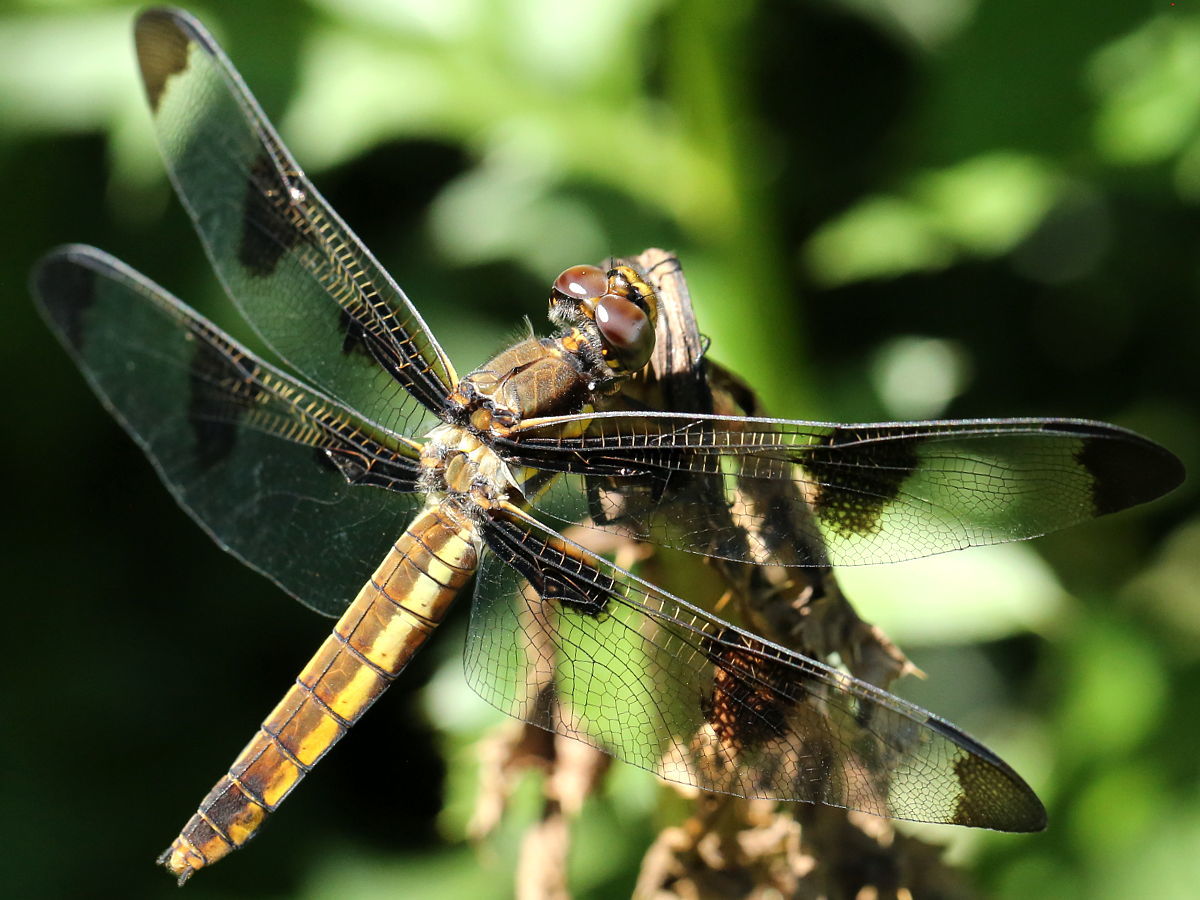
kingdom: Animalia
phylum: Arthropoda
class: Insecta
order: Odonata
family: Libellulidae
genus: Libellula
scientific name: Libellula pulchella
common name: Twelve-spotted skimmer
